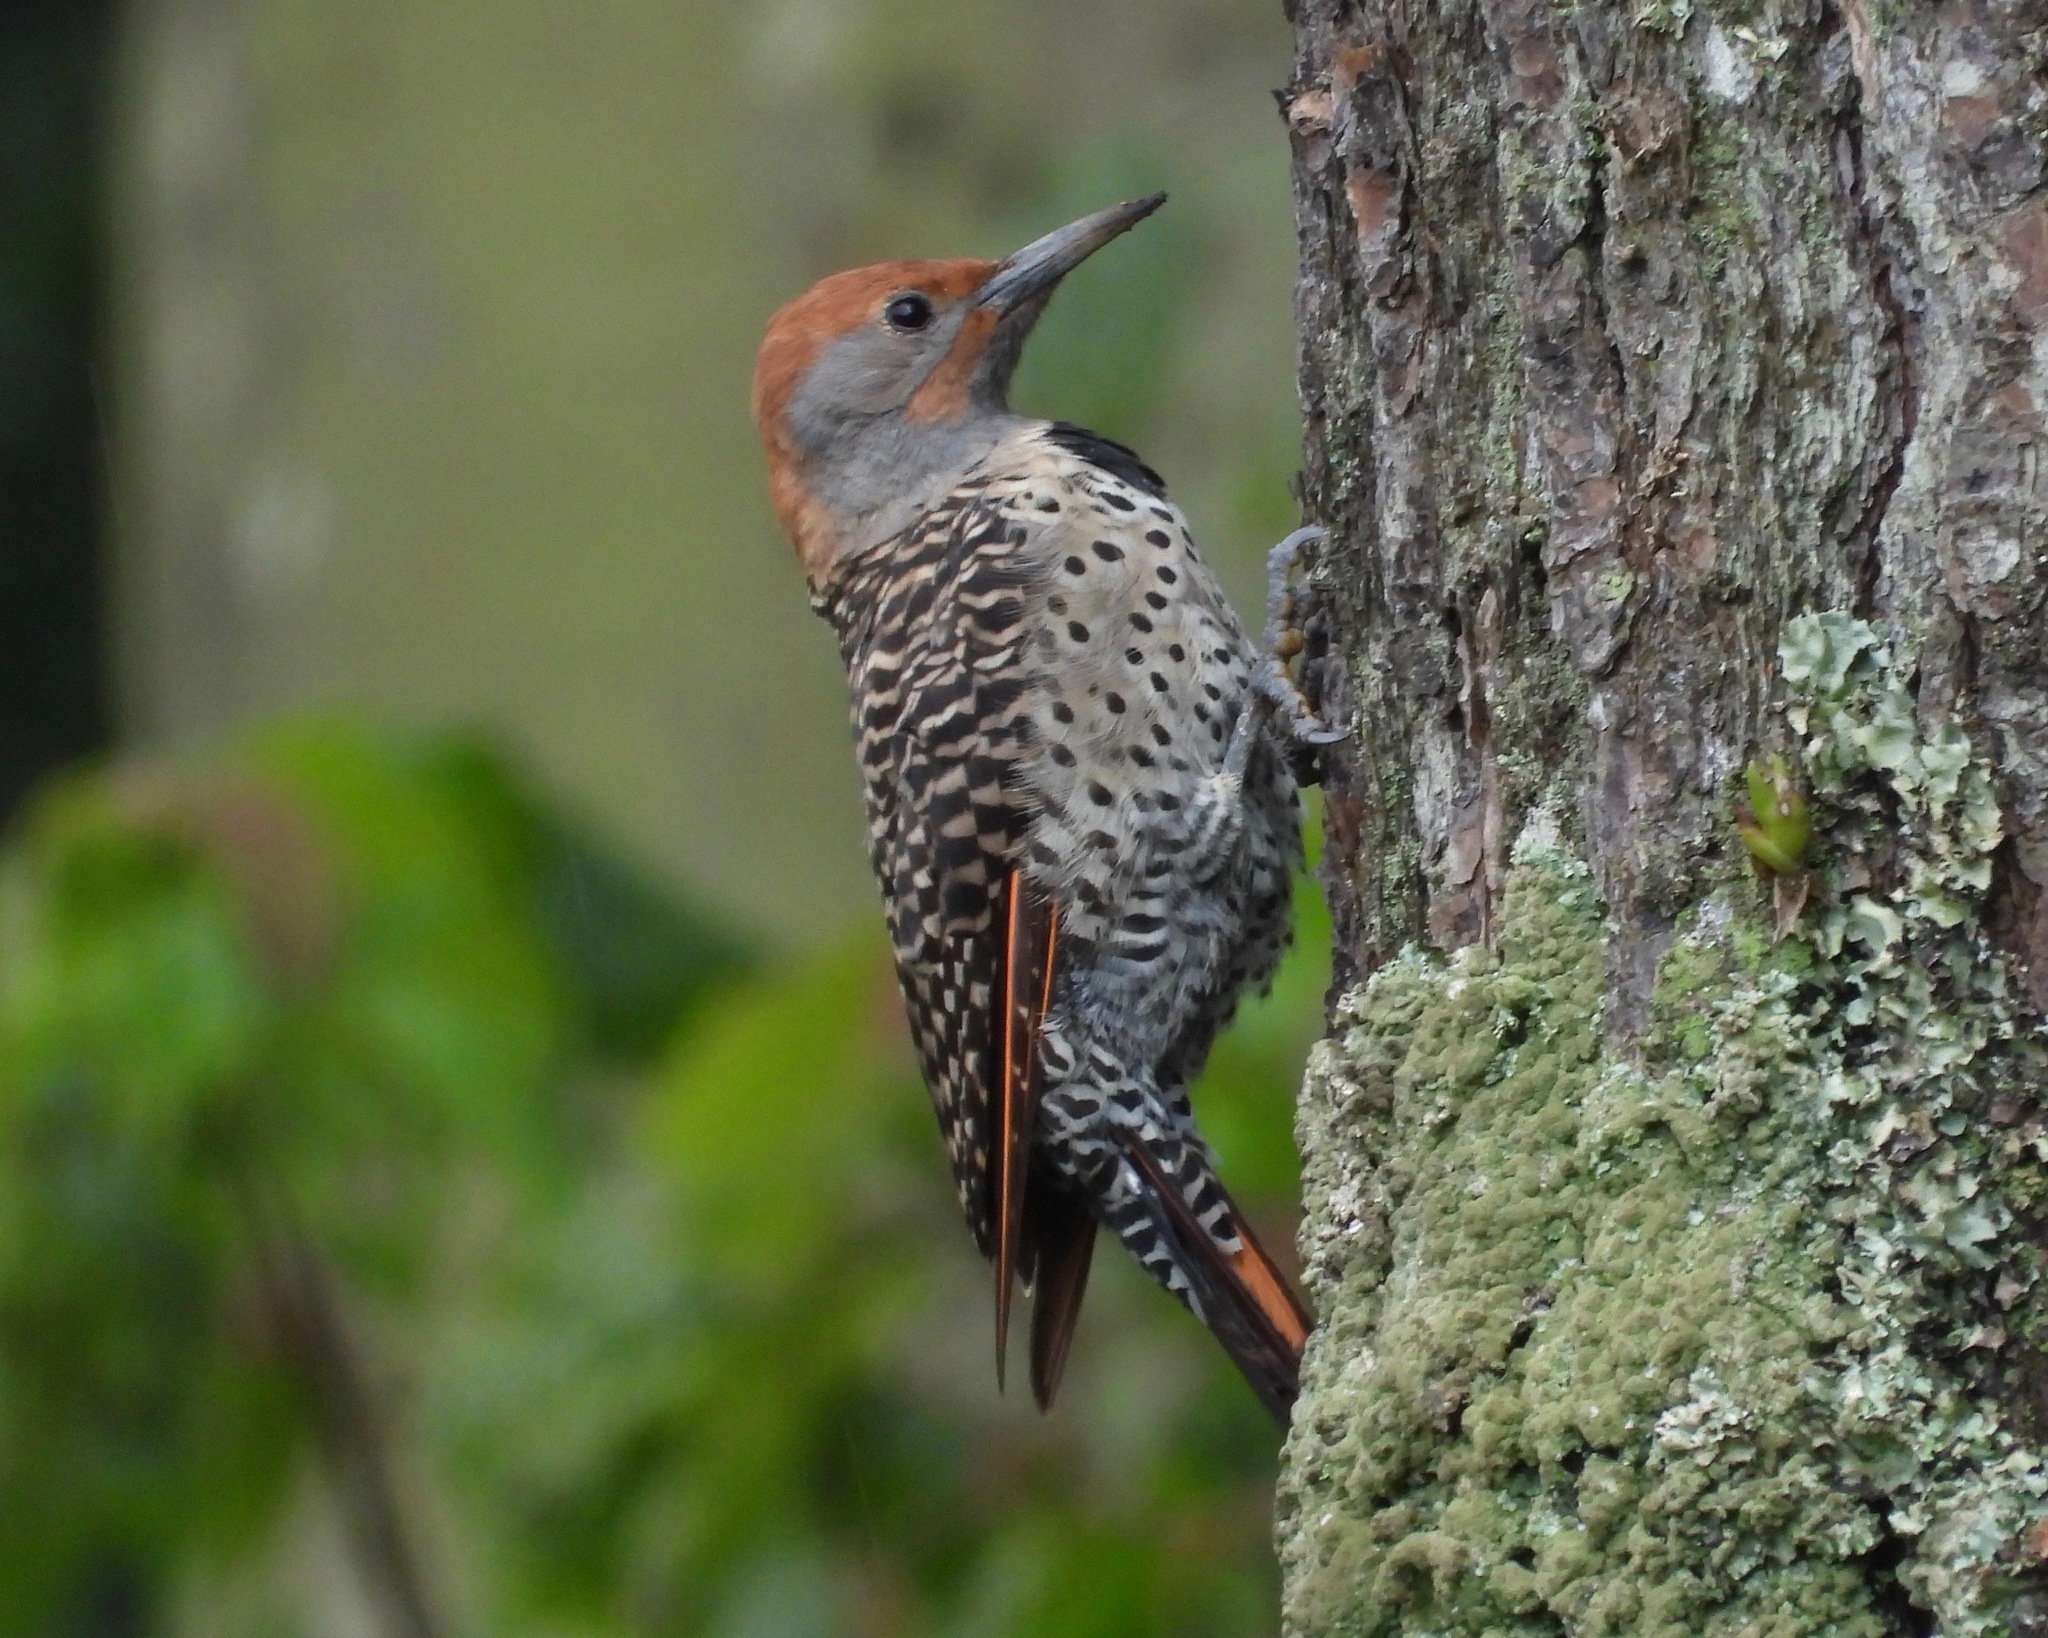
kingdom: Animalia
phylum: Chordata
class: Aves
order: Piciformes
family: Picidae
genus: Colaptes
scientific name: Colaptes auratus
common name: Northern flicker
